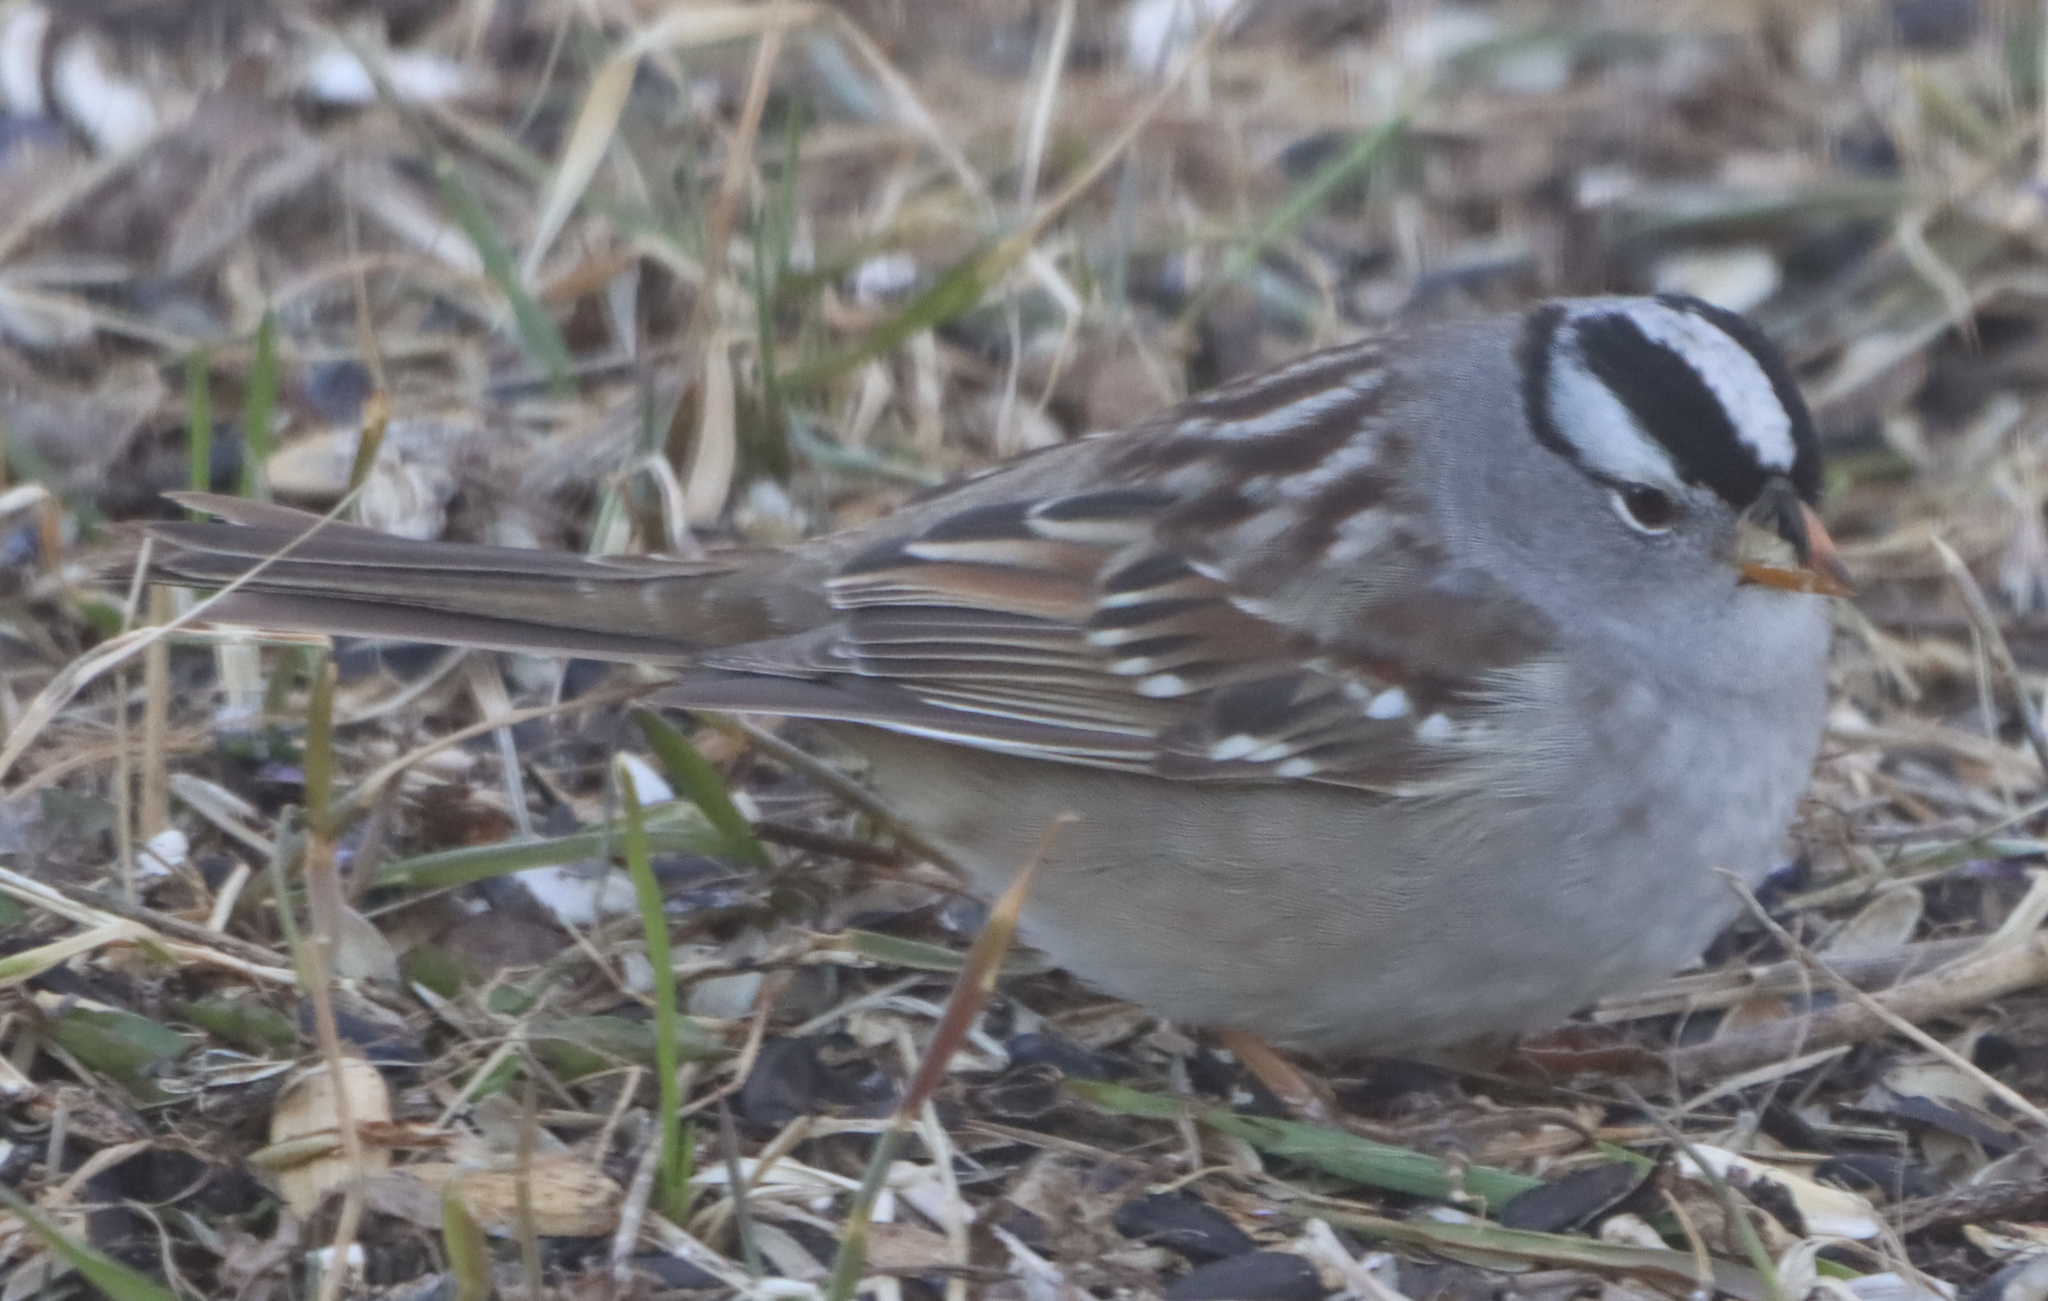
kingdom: Animalia
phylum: Chordata
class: Aves
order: Passeriformes
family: Passerellidae
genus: Zonotrichia
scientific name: Zonotrichia leucophrys
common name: White-crowned sparrow
